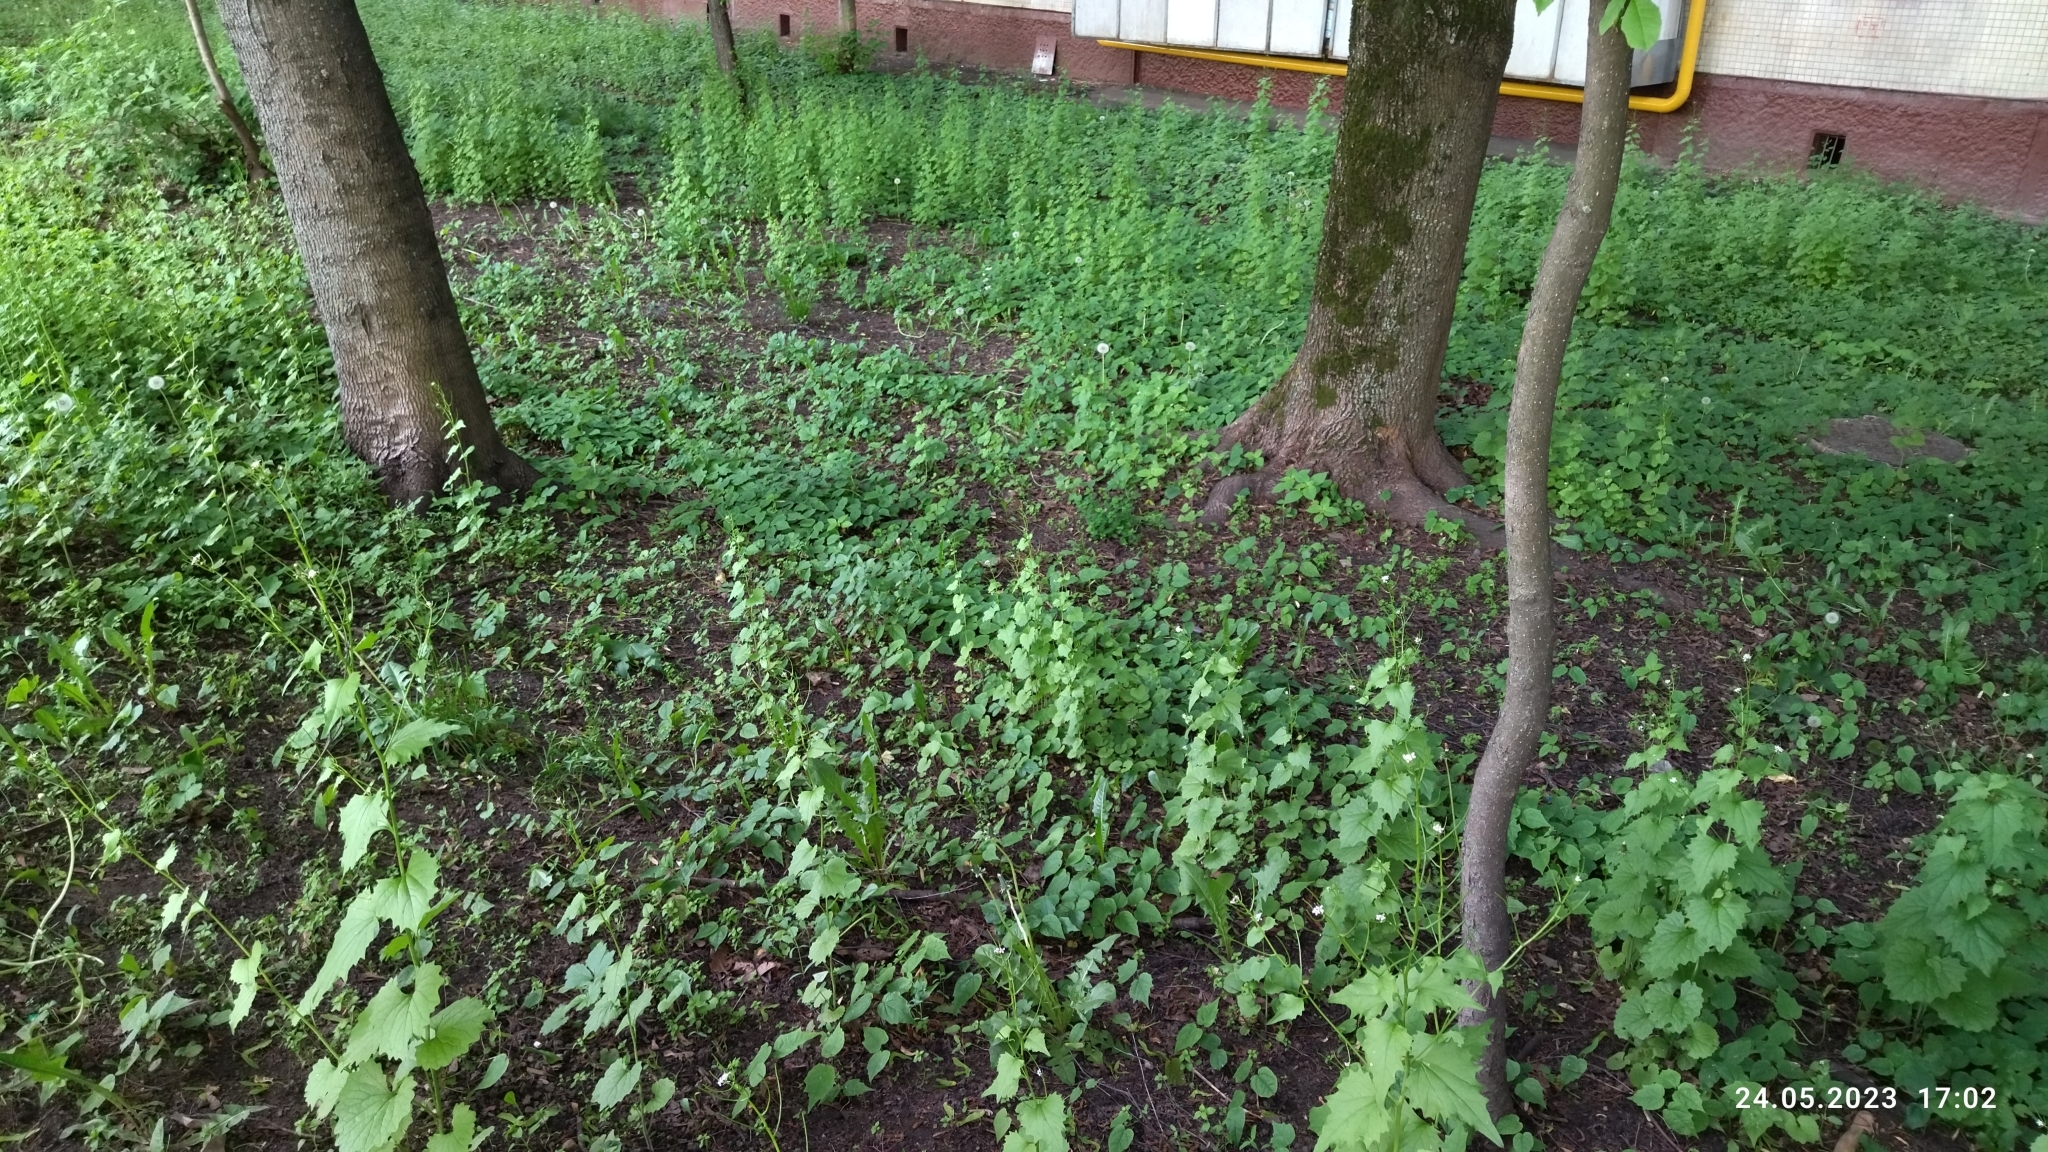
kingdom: Plantae
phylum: Tracheophyta
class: Magnoliopsida
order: Brassicales
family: Brassicaceae
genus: Alliaria
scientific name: Alliaria petiolata
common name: Garlic mustard
